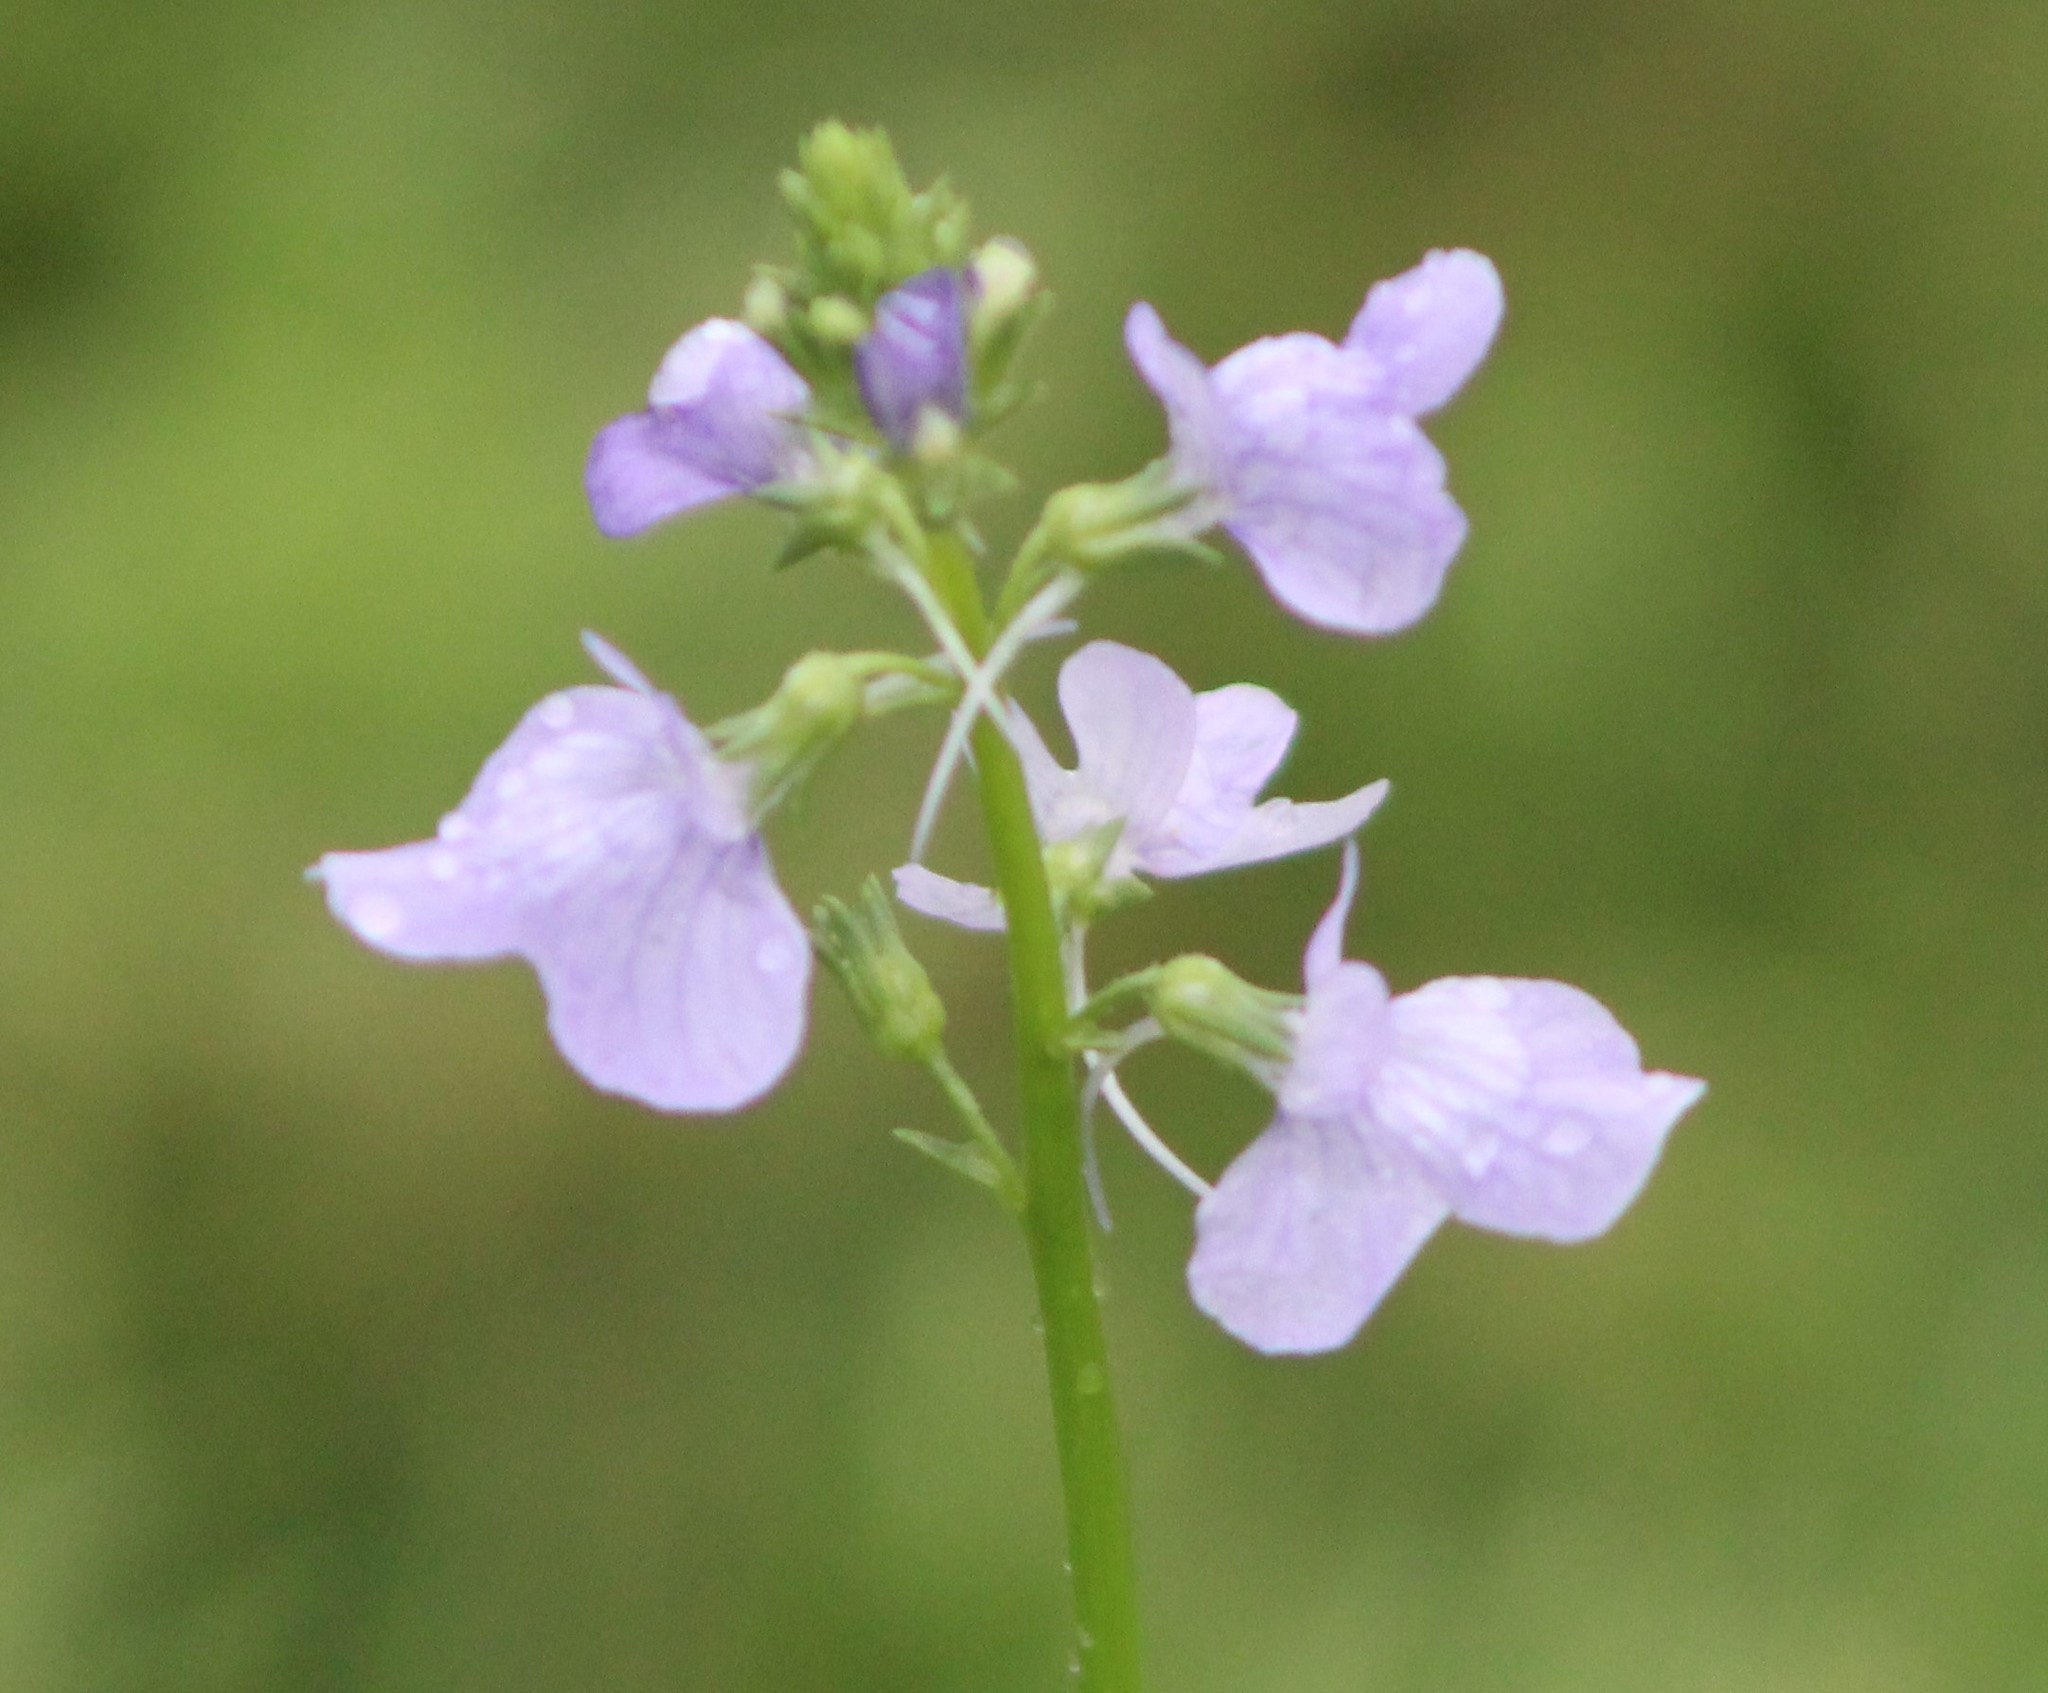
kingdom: Plantae
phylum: Tracheophyta
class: Magnoliopsida
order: Lamiales
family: Plantaginaceae
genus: Nuttallanthus
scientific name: Nuttallanthus texanus
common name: Texas toadflax
